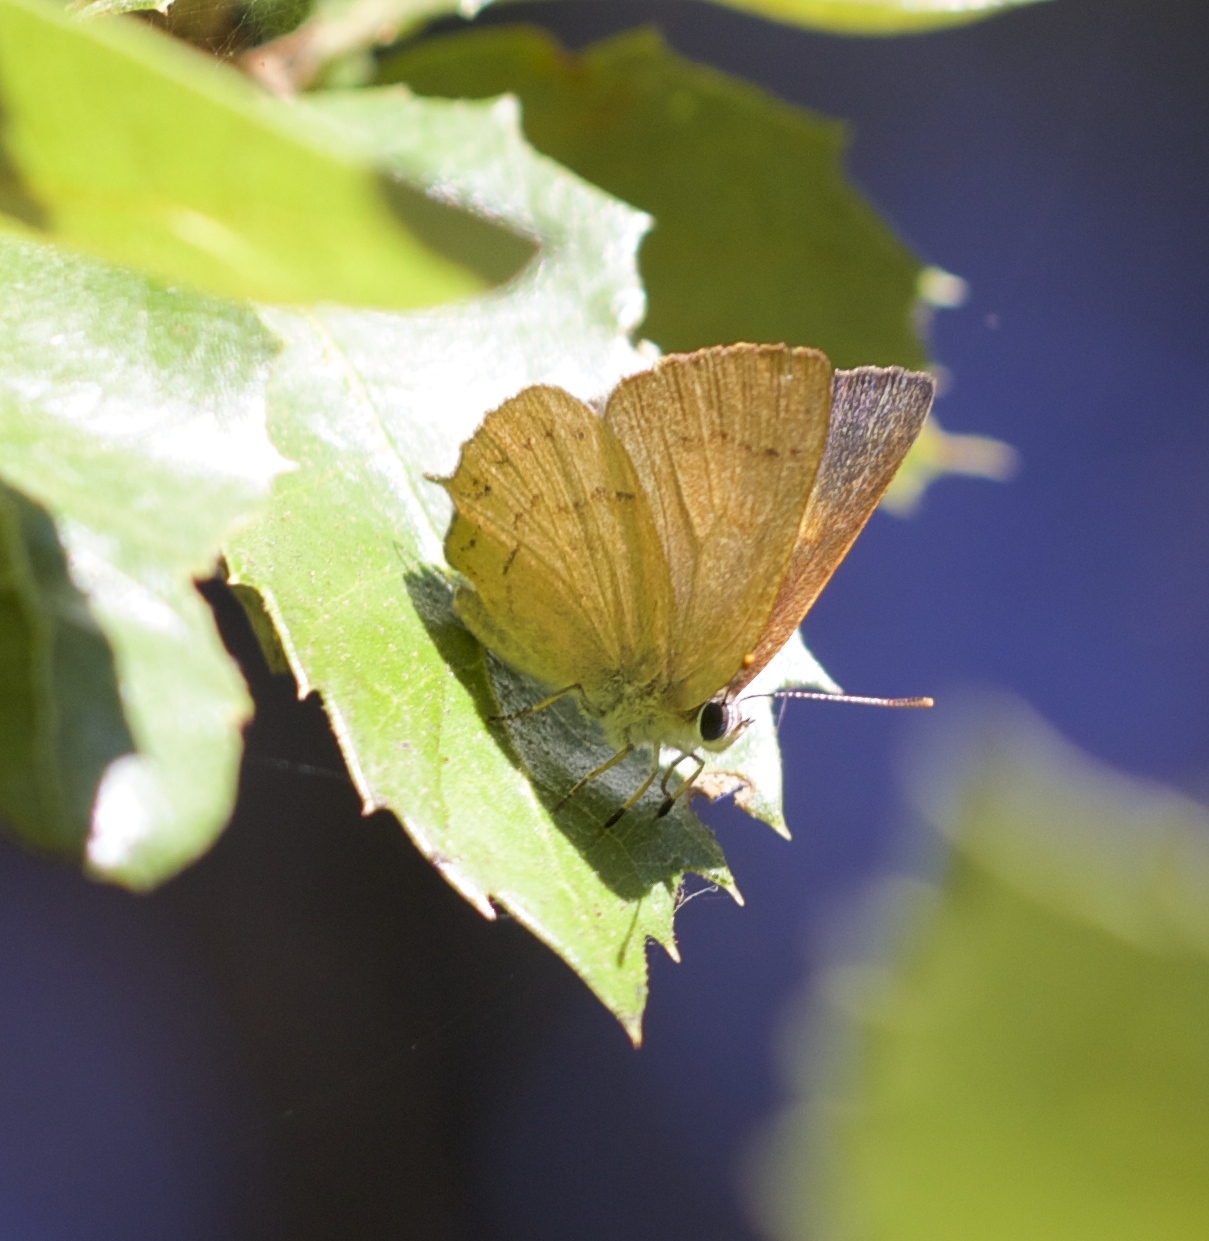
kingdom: Animalia
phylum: Arthropoda
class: Insecta
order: Lepidoptera
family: Lycaenidae
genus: Habrodais
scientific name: Habrodais grunus
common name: Golden hairstreak
